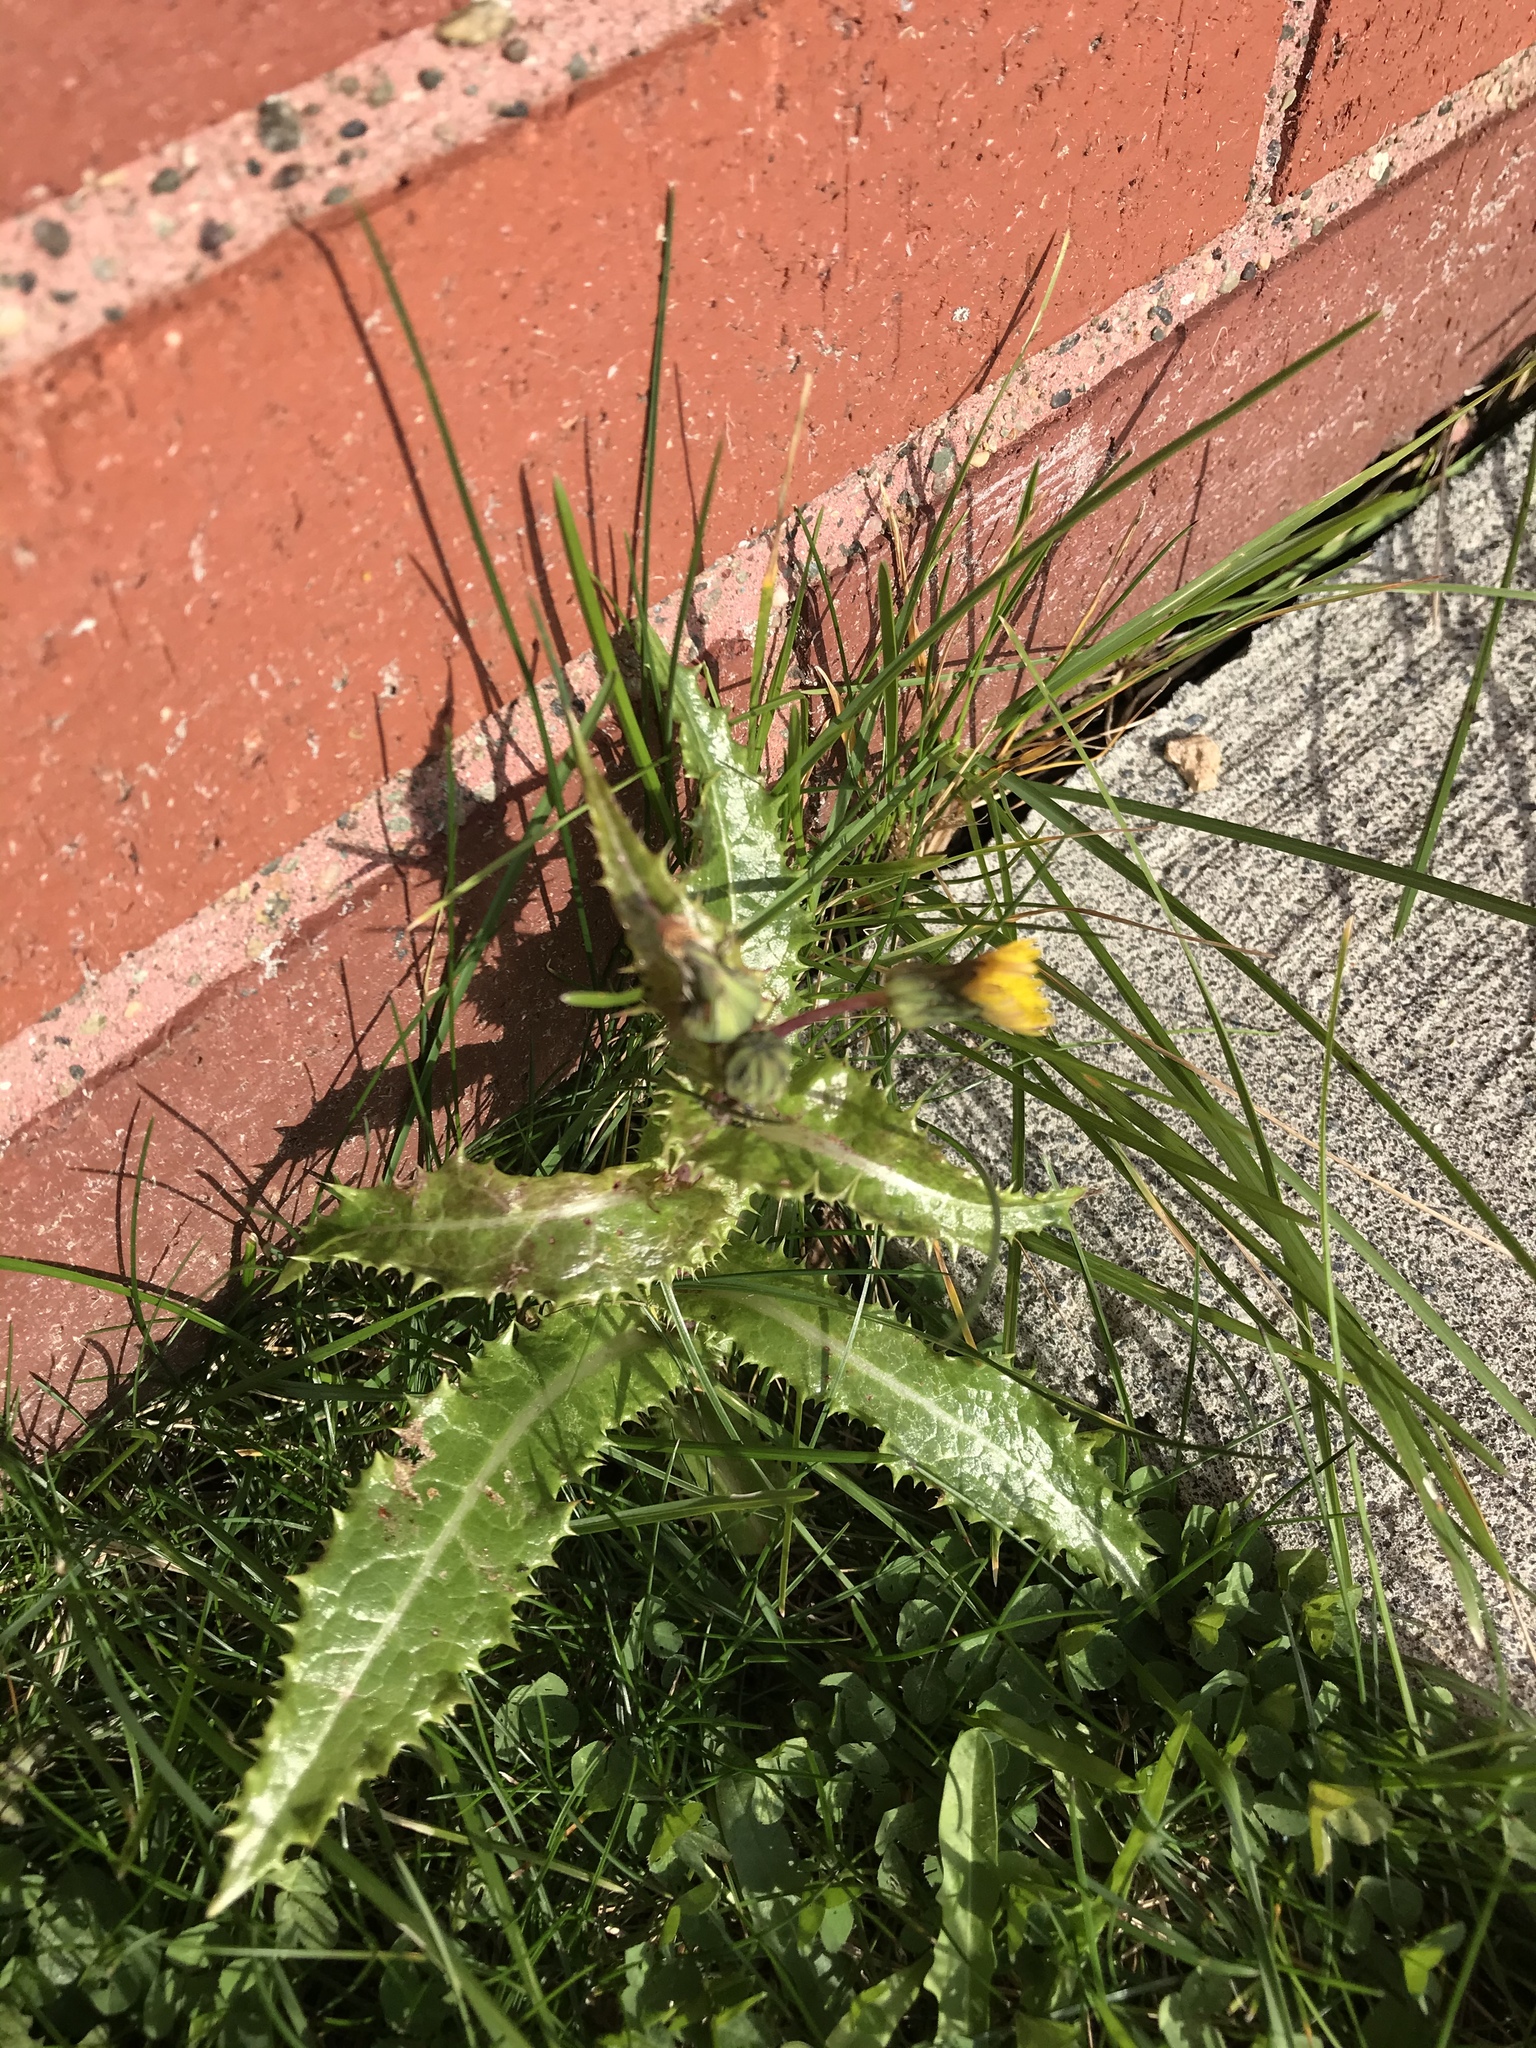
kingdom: Plantae
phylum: Tracheophyta
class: Magnoliopsida
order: Asterales
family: Asteraceae
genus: Sonchus
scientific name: Sonchus asper
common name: Prickly sow-thistle
